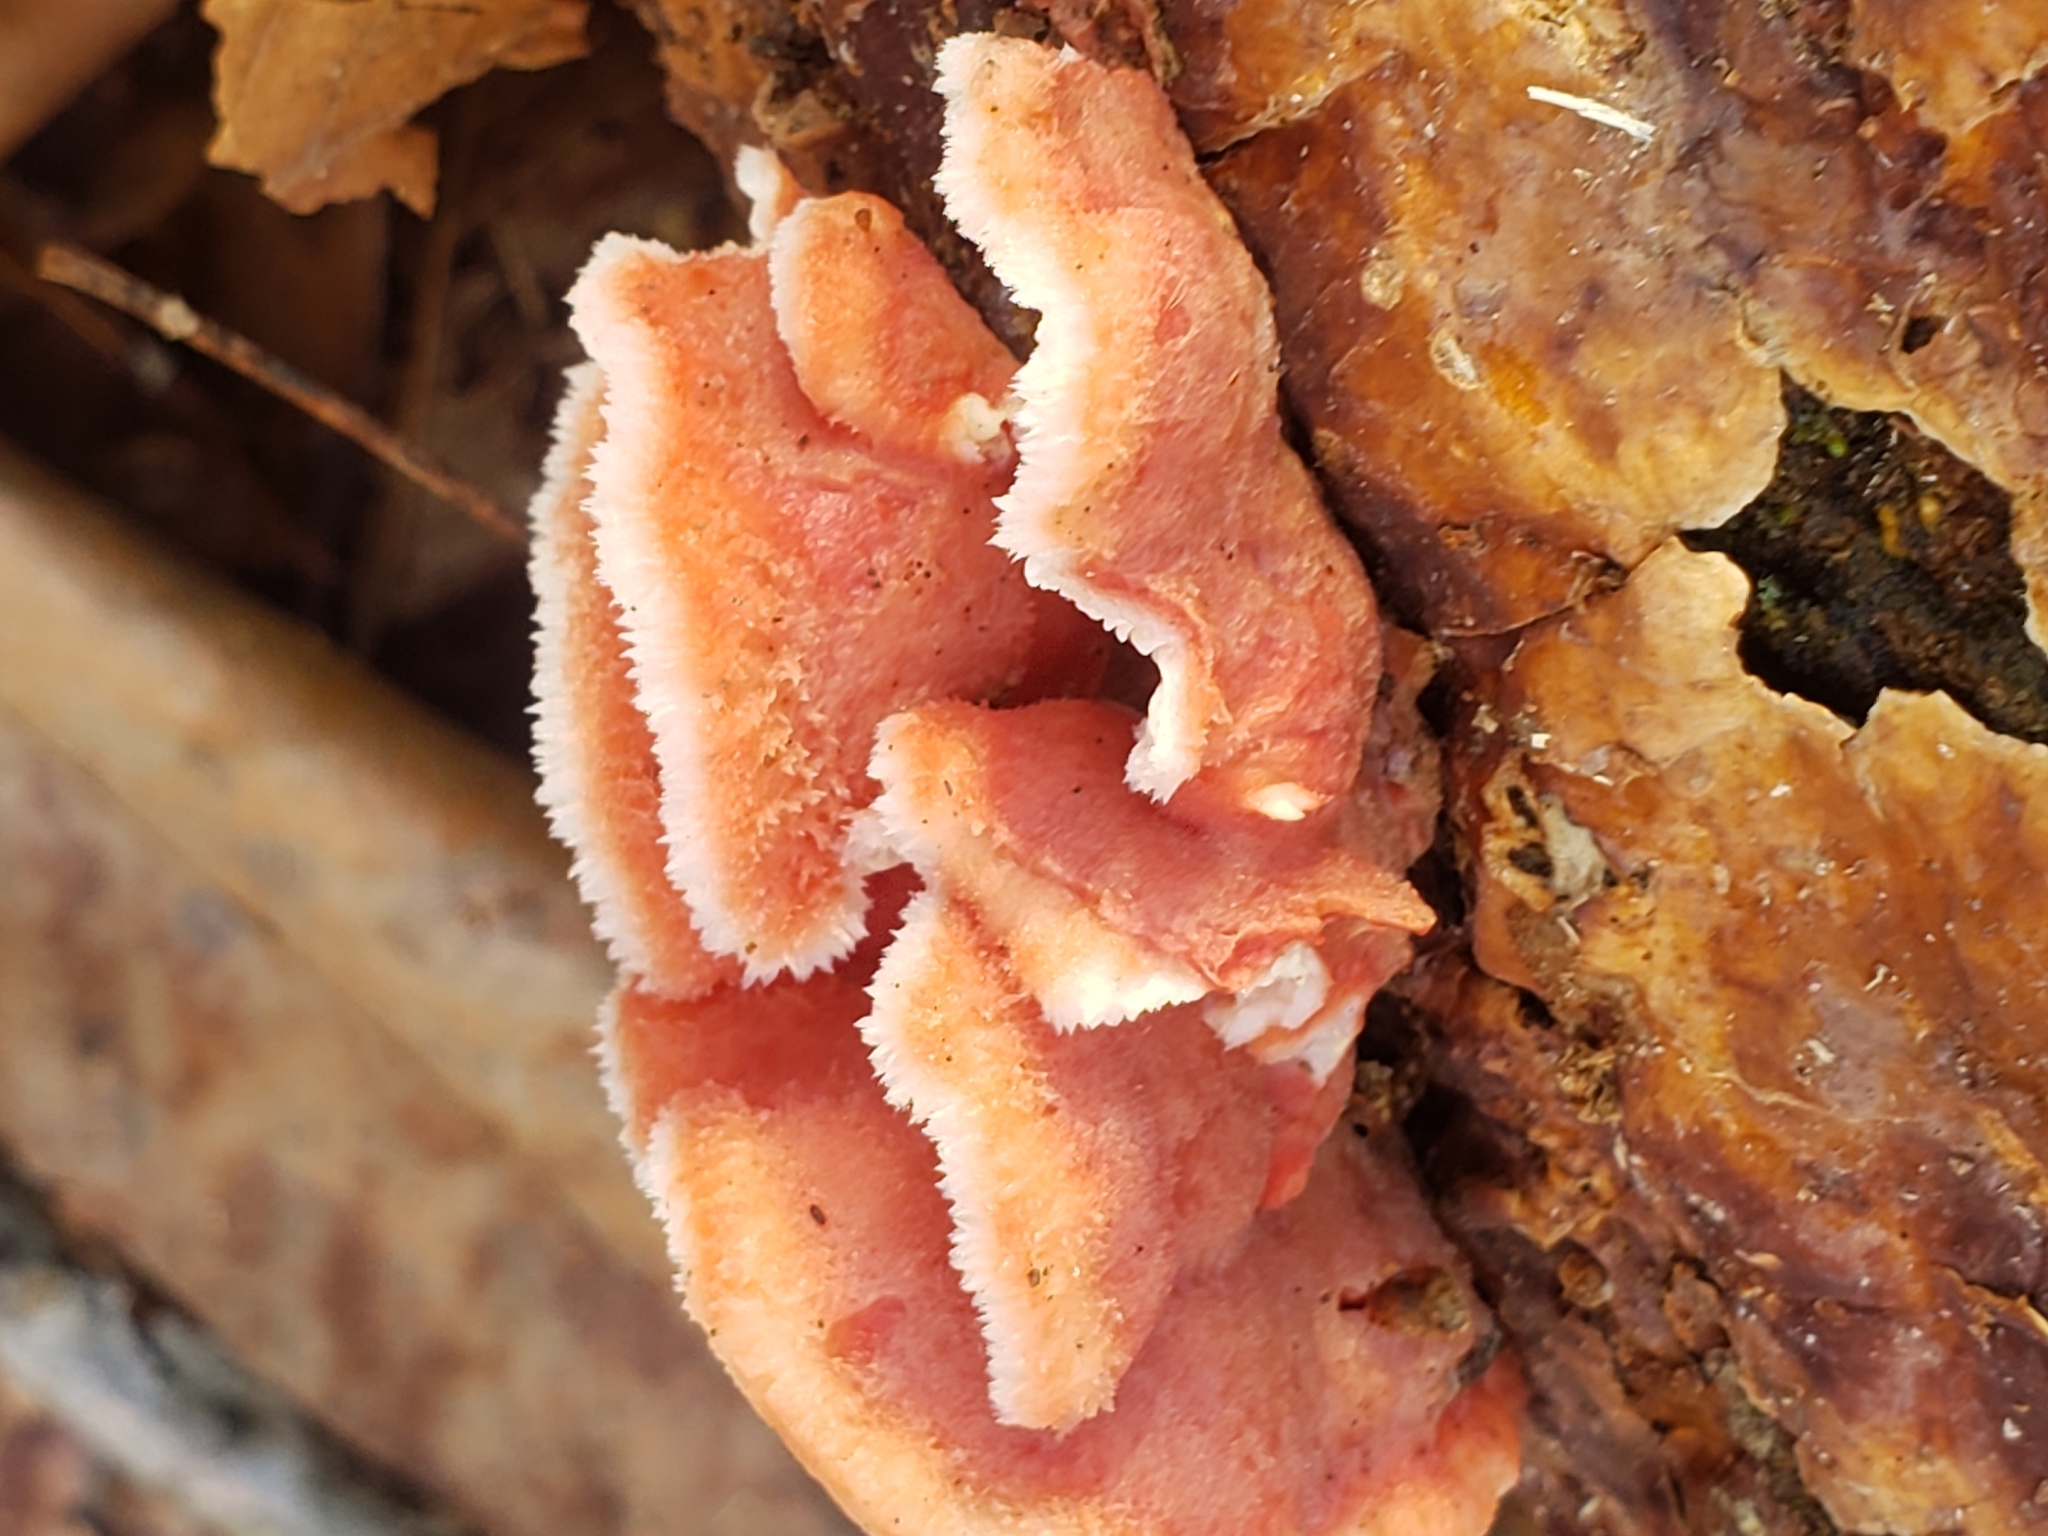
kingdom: Fungi
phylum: Basidiomycota
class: Agaricomycetes
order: Polyporales
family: Irpicaceae
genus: Byssomerulius
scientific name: Byssomerulius incarnatus
